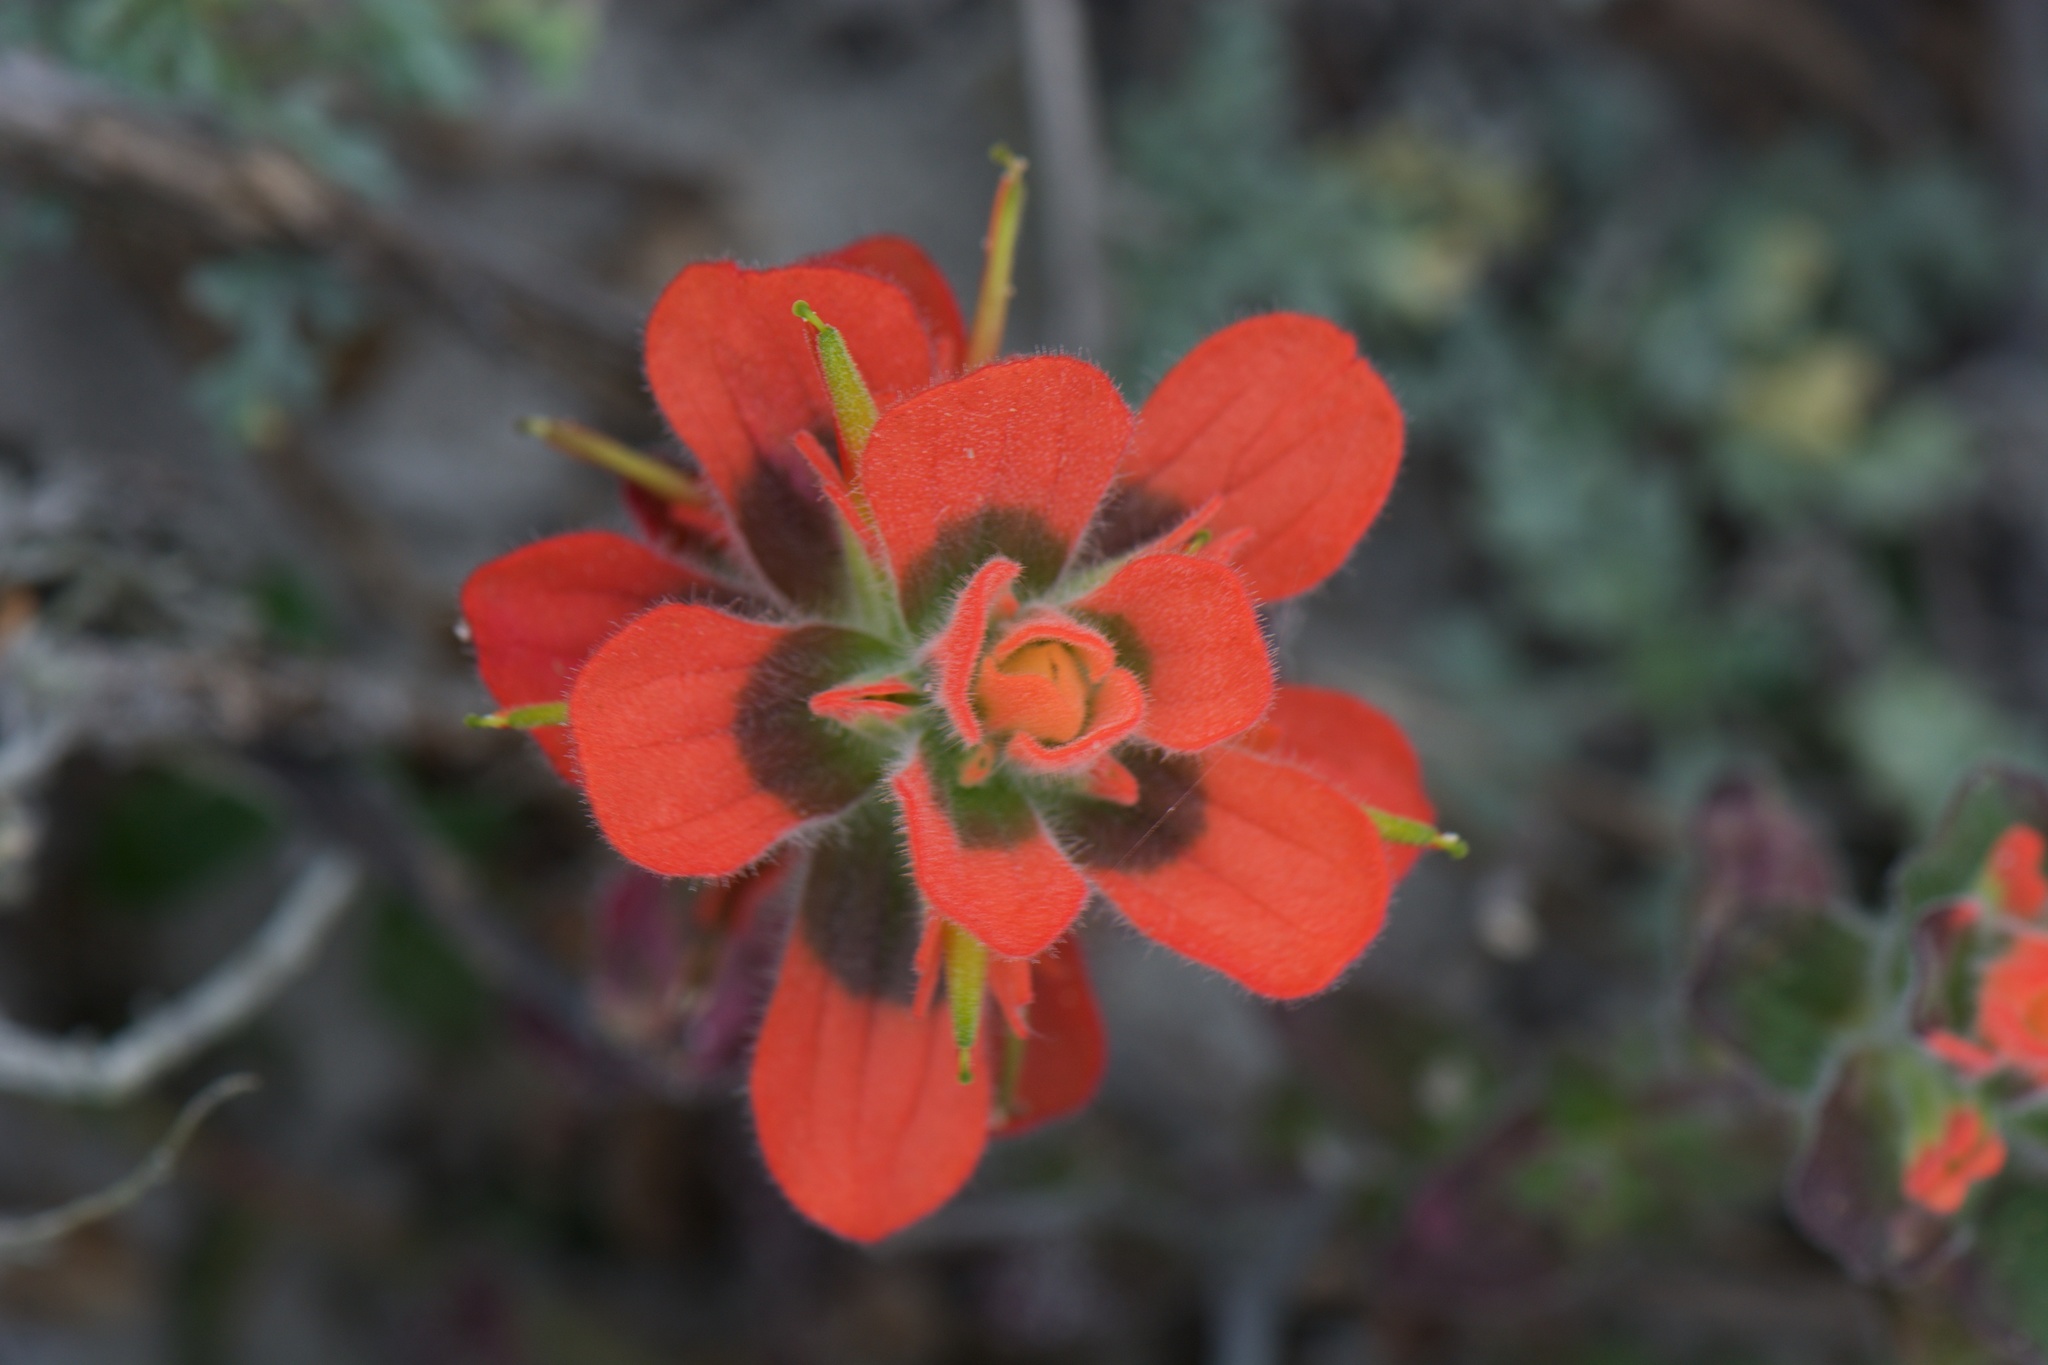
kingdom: Plantae
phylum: Tracheophyta
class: Magnoliopsida
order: Lamiales
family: Orobanchaceae
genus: Castilleja
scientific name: Castilleja latifolia
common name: Monterey indian paintbrush
